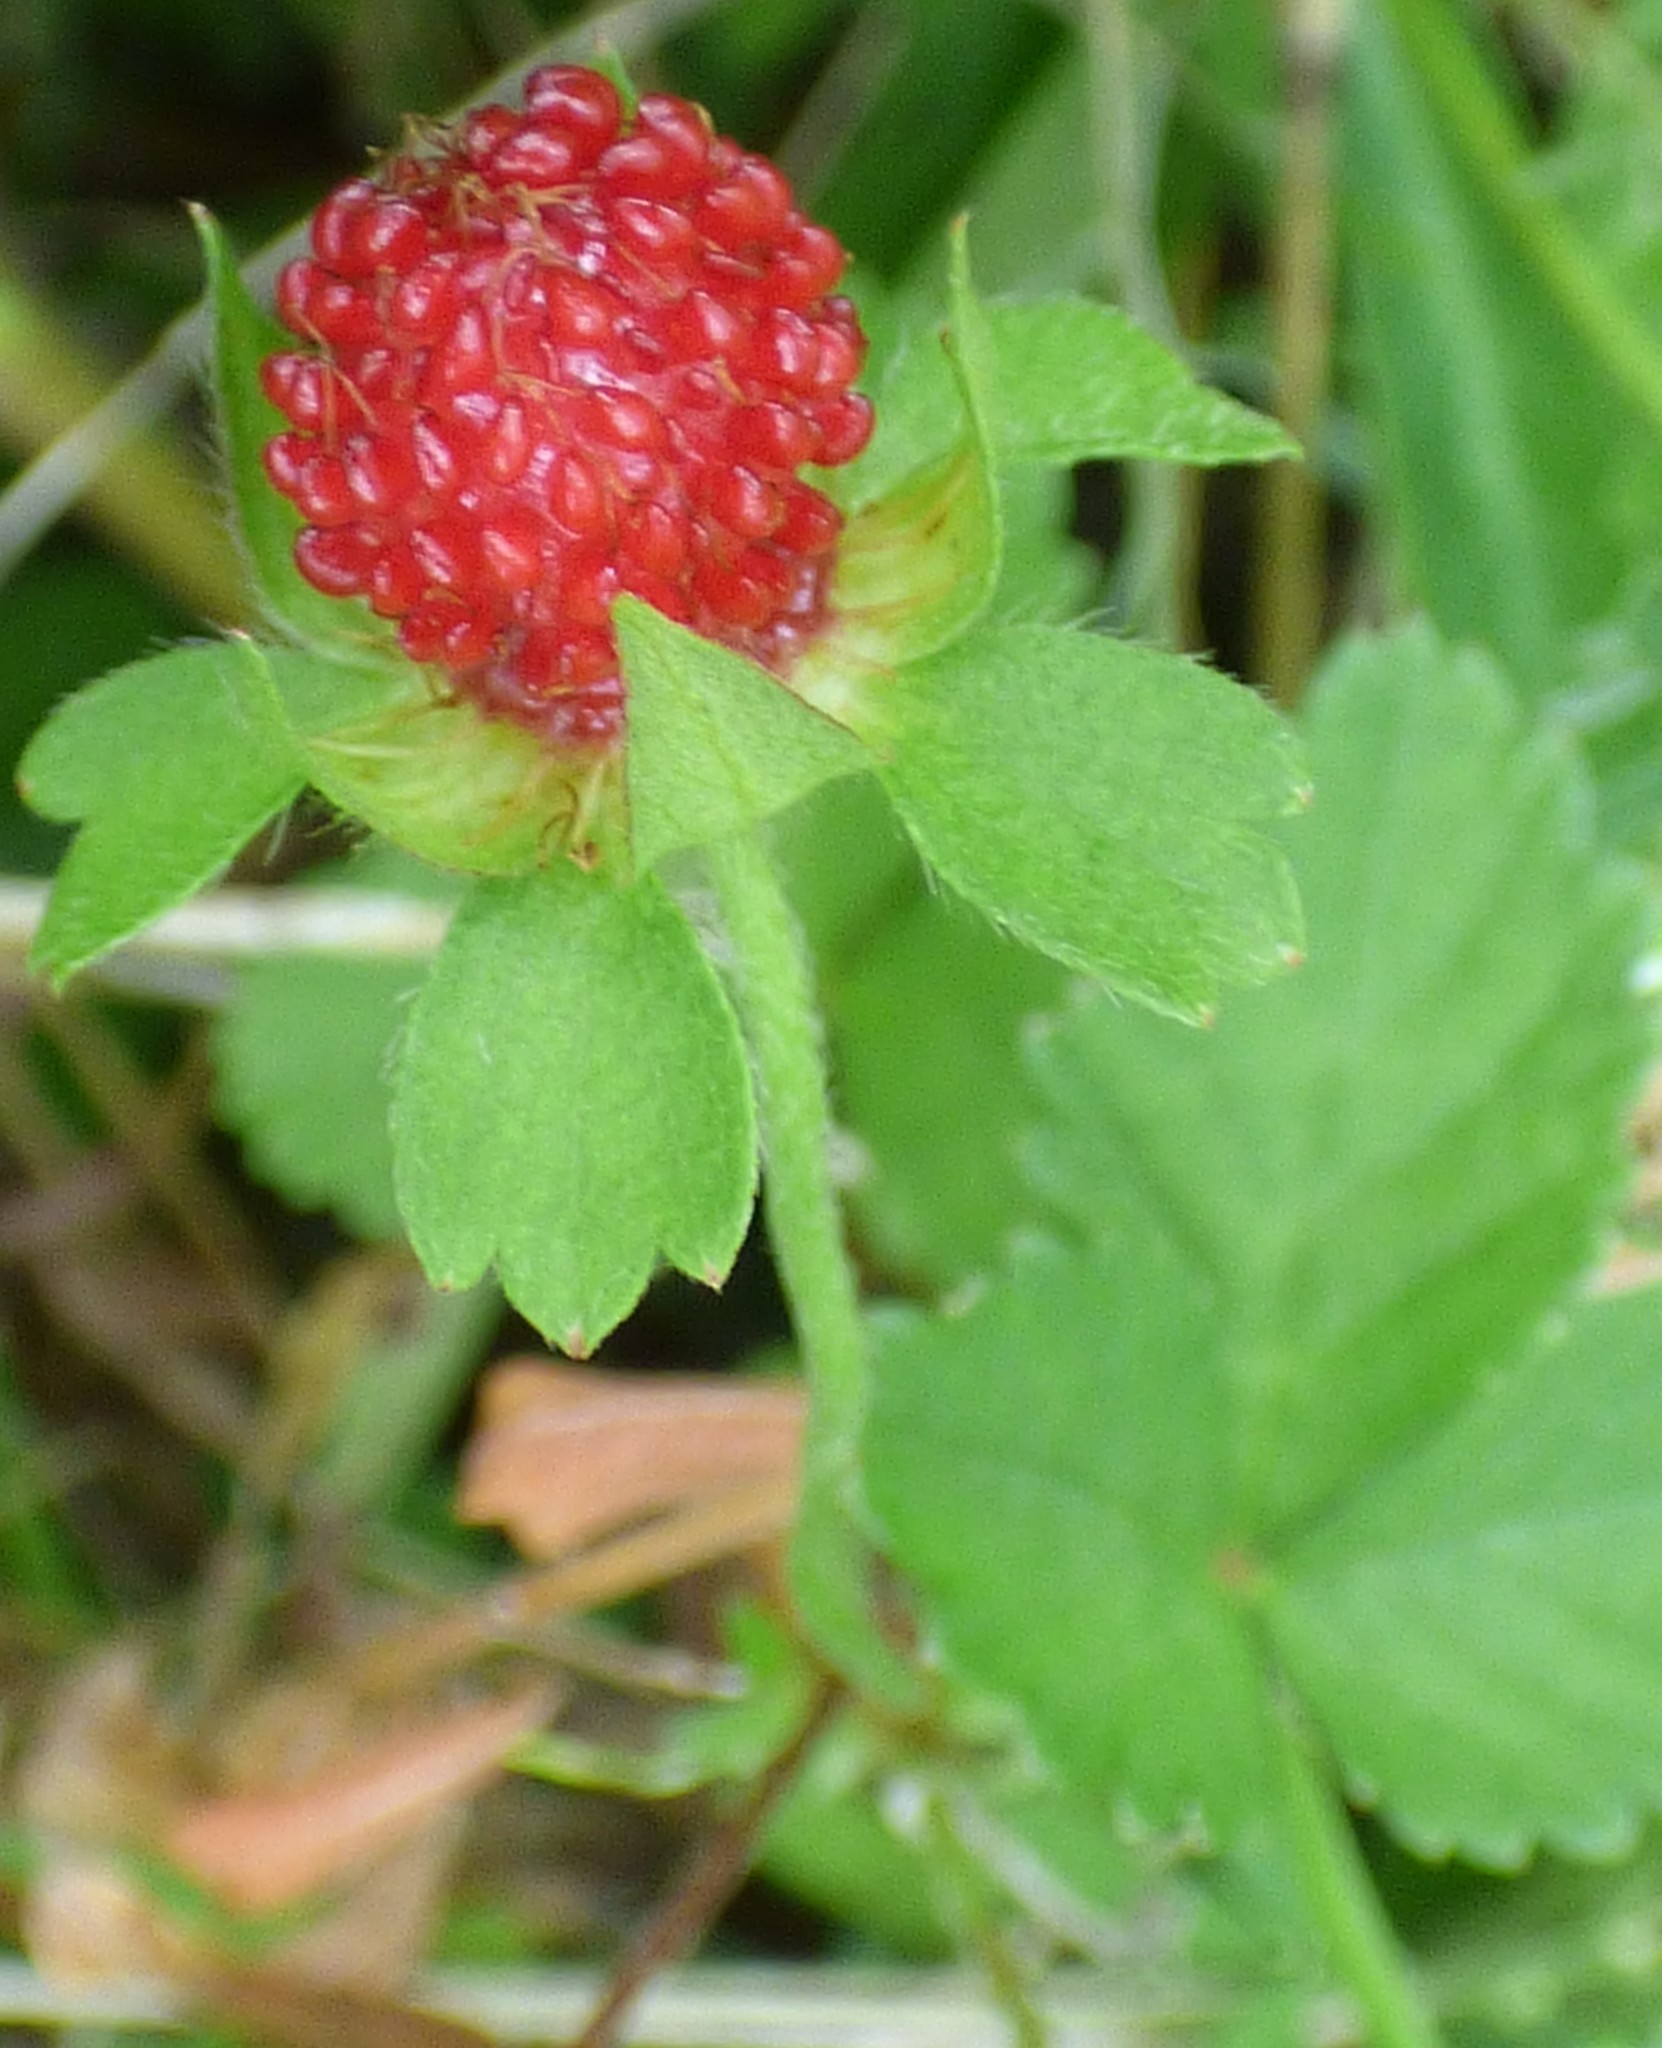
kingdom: Plantae
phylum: Tracheophyta
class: Magnoliopsida
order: Rosales
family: Rosaceae
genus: Potentilla
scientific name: Potentilla indica
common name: Yellow-flowered strawberry
